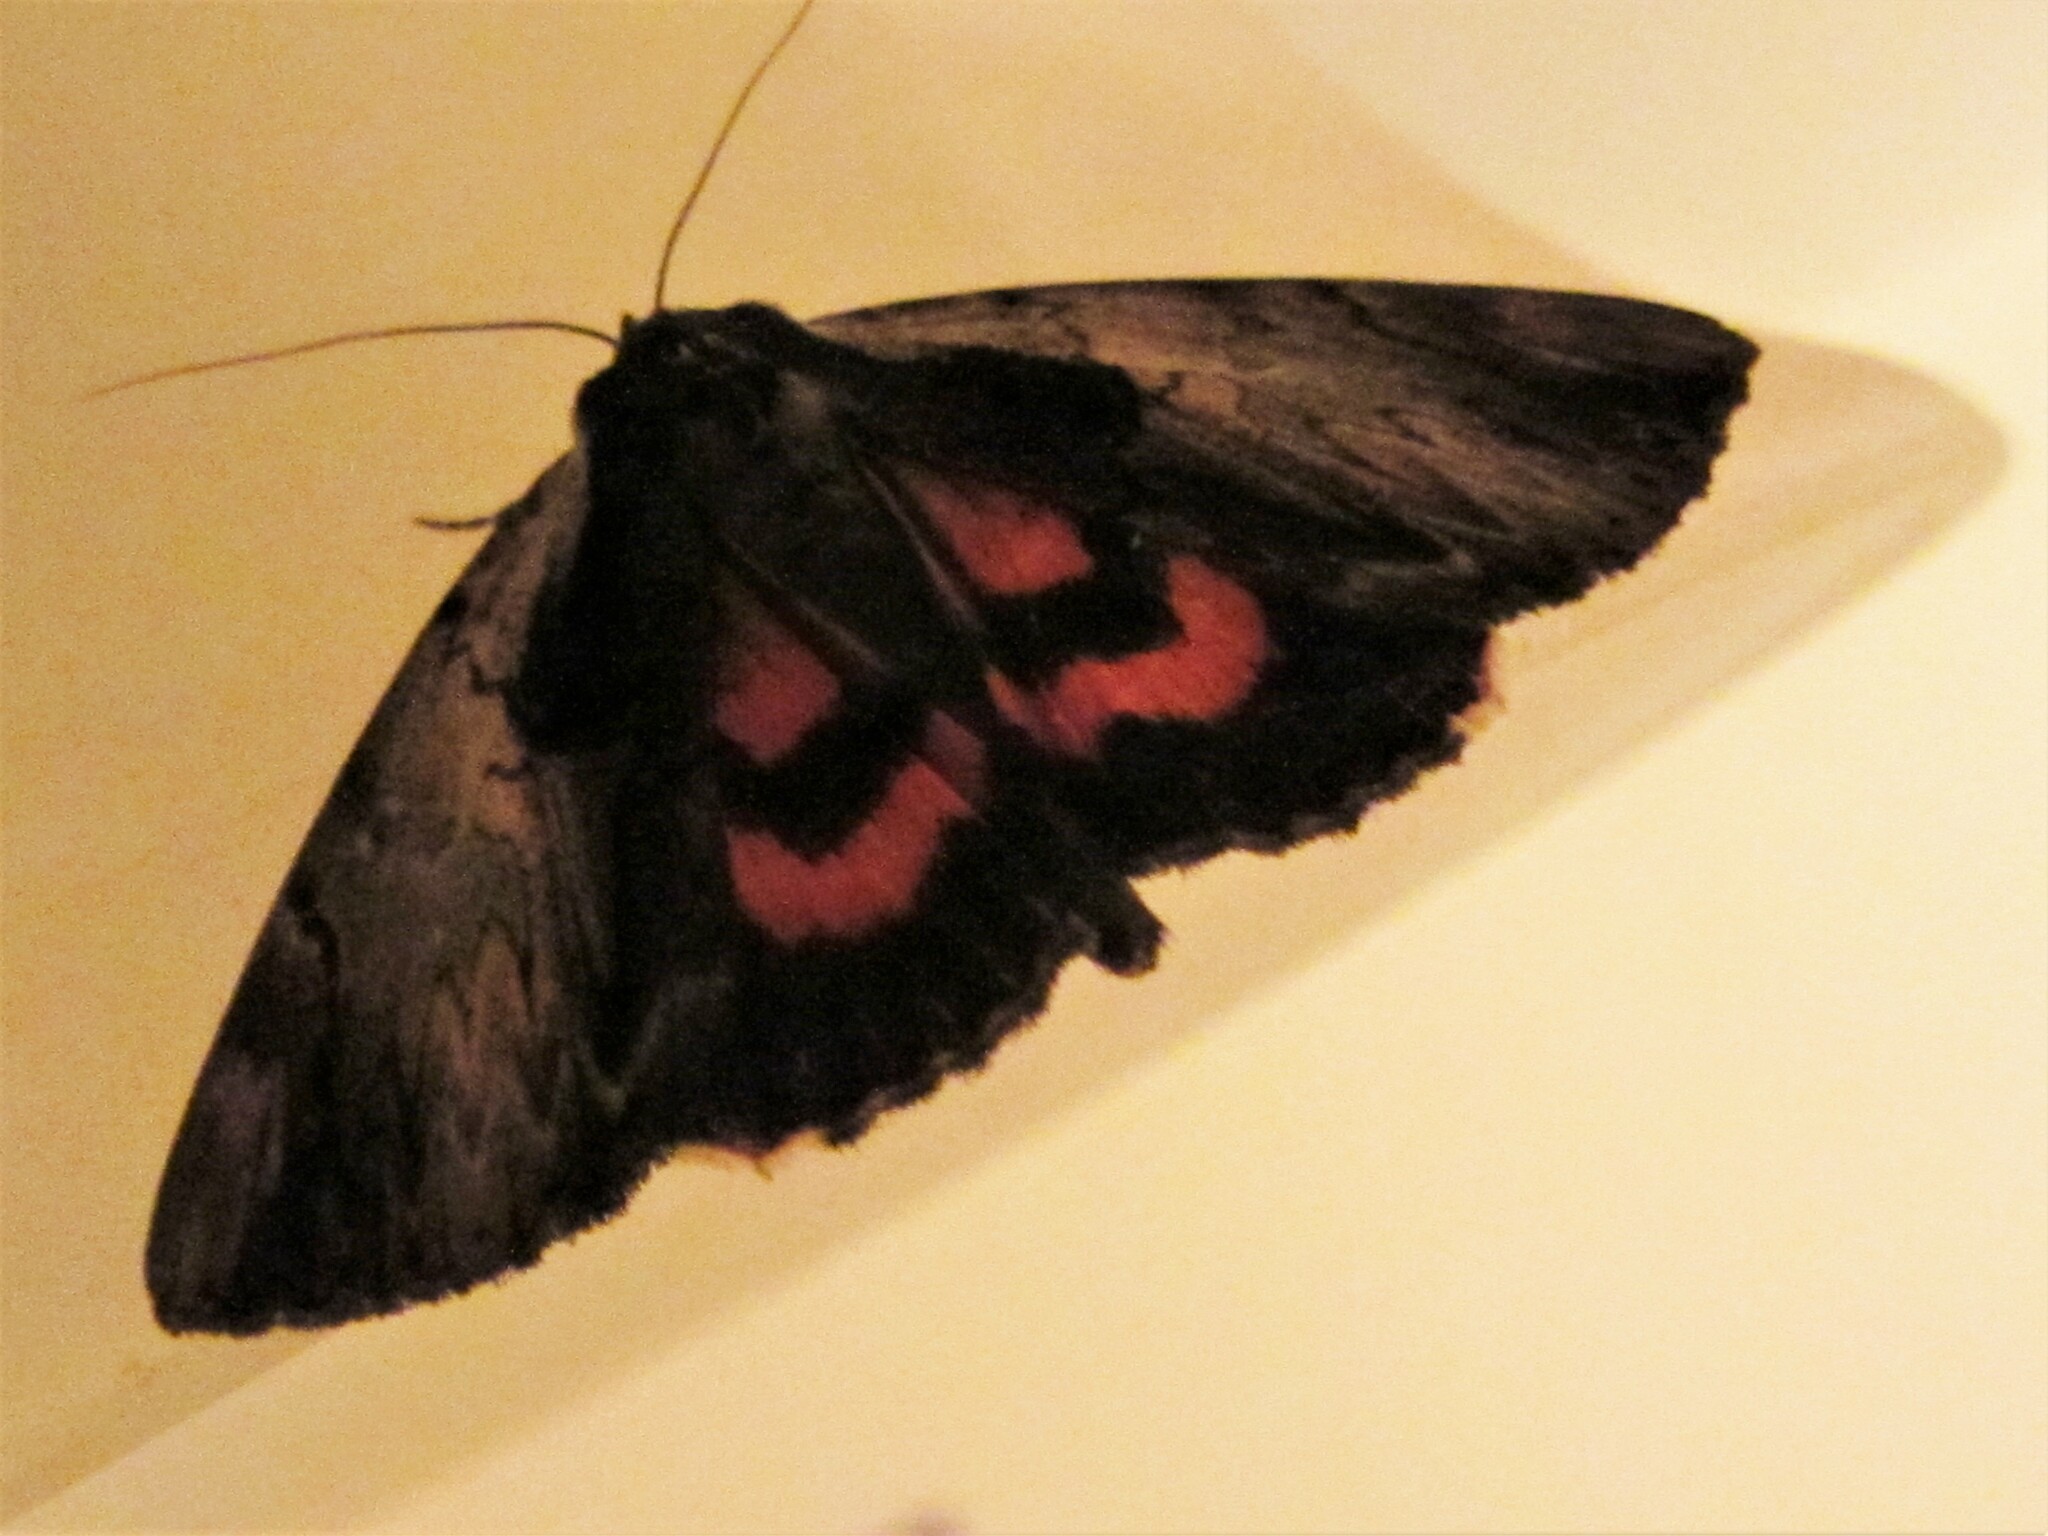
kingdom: Animalia
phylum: Arthropoda
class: Insecta
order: Lepidoptera
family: Erebidae
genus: Catocala
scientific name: Catocala ultronia
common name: Ultronia underwing
